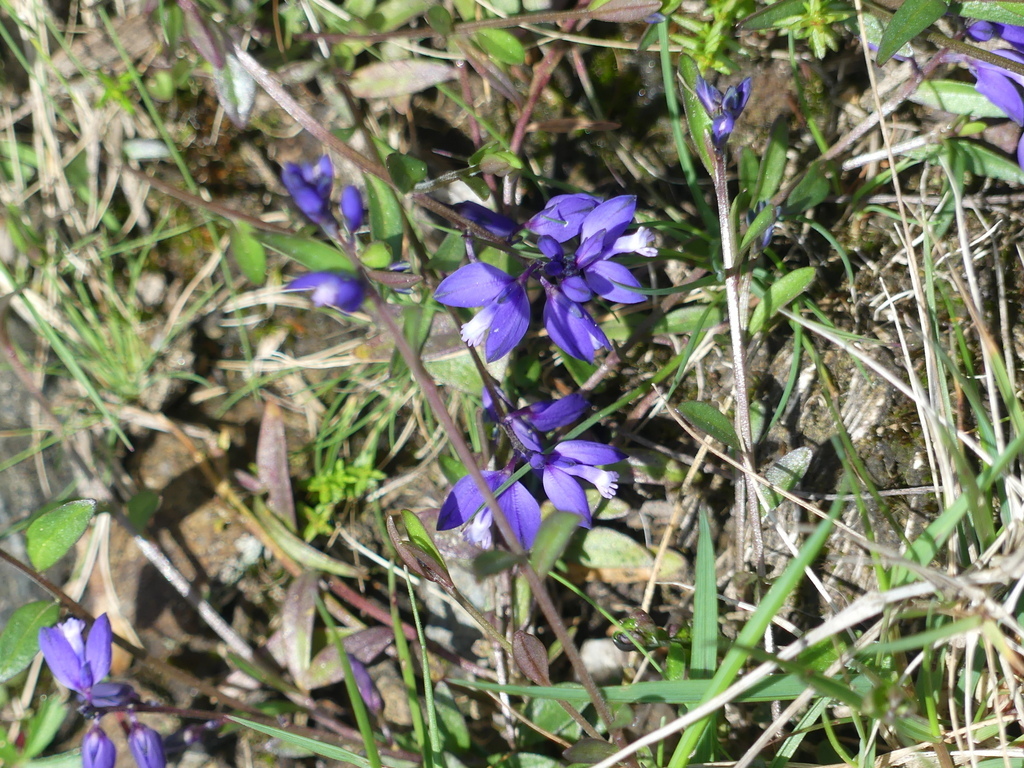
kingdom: Plantae
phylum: Tracheophyta
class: Magnoliopsida
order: Fabales
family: Polygalaceae
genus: Polygala
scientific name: Polygala vulgaris
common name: Common milkwort
